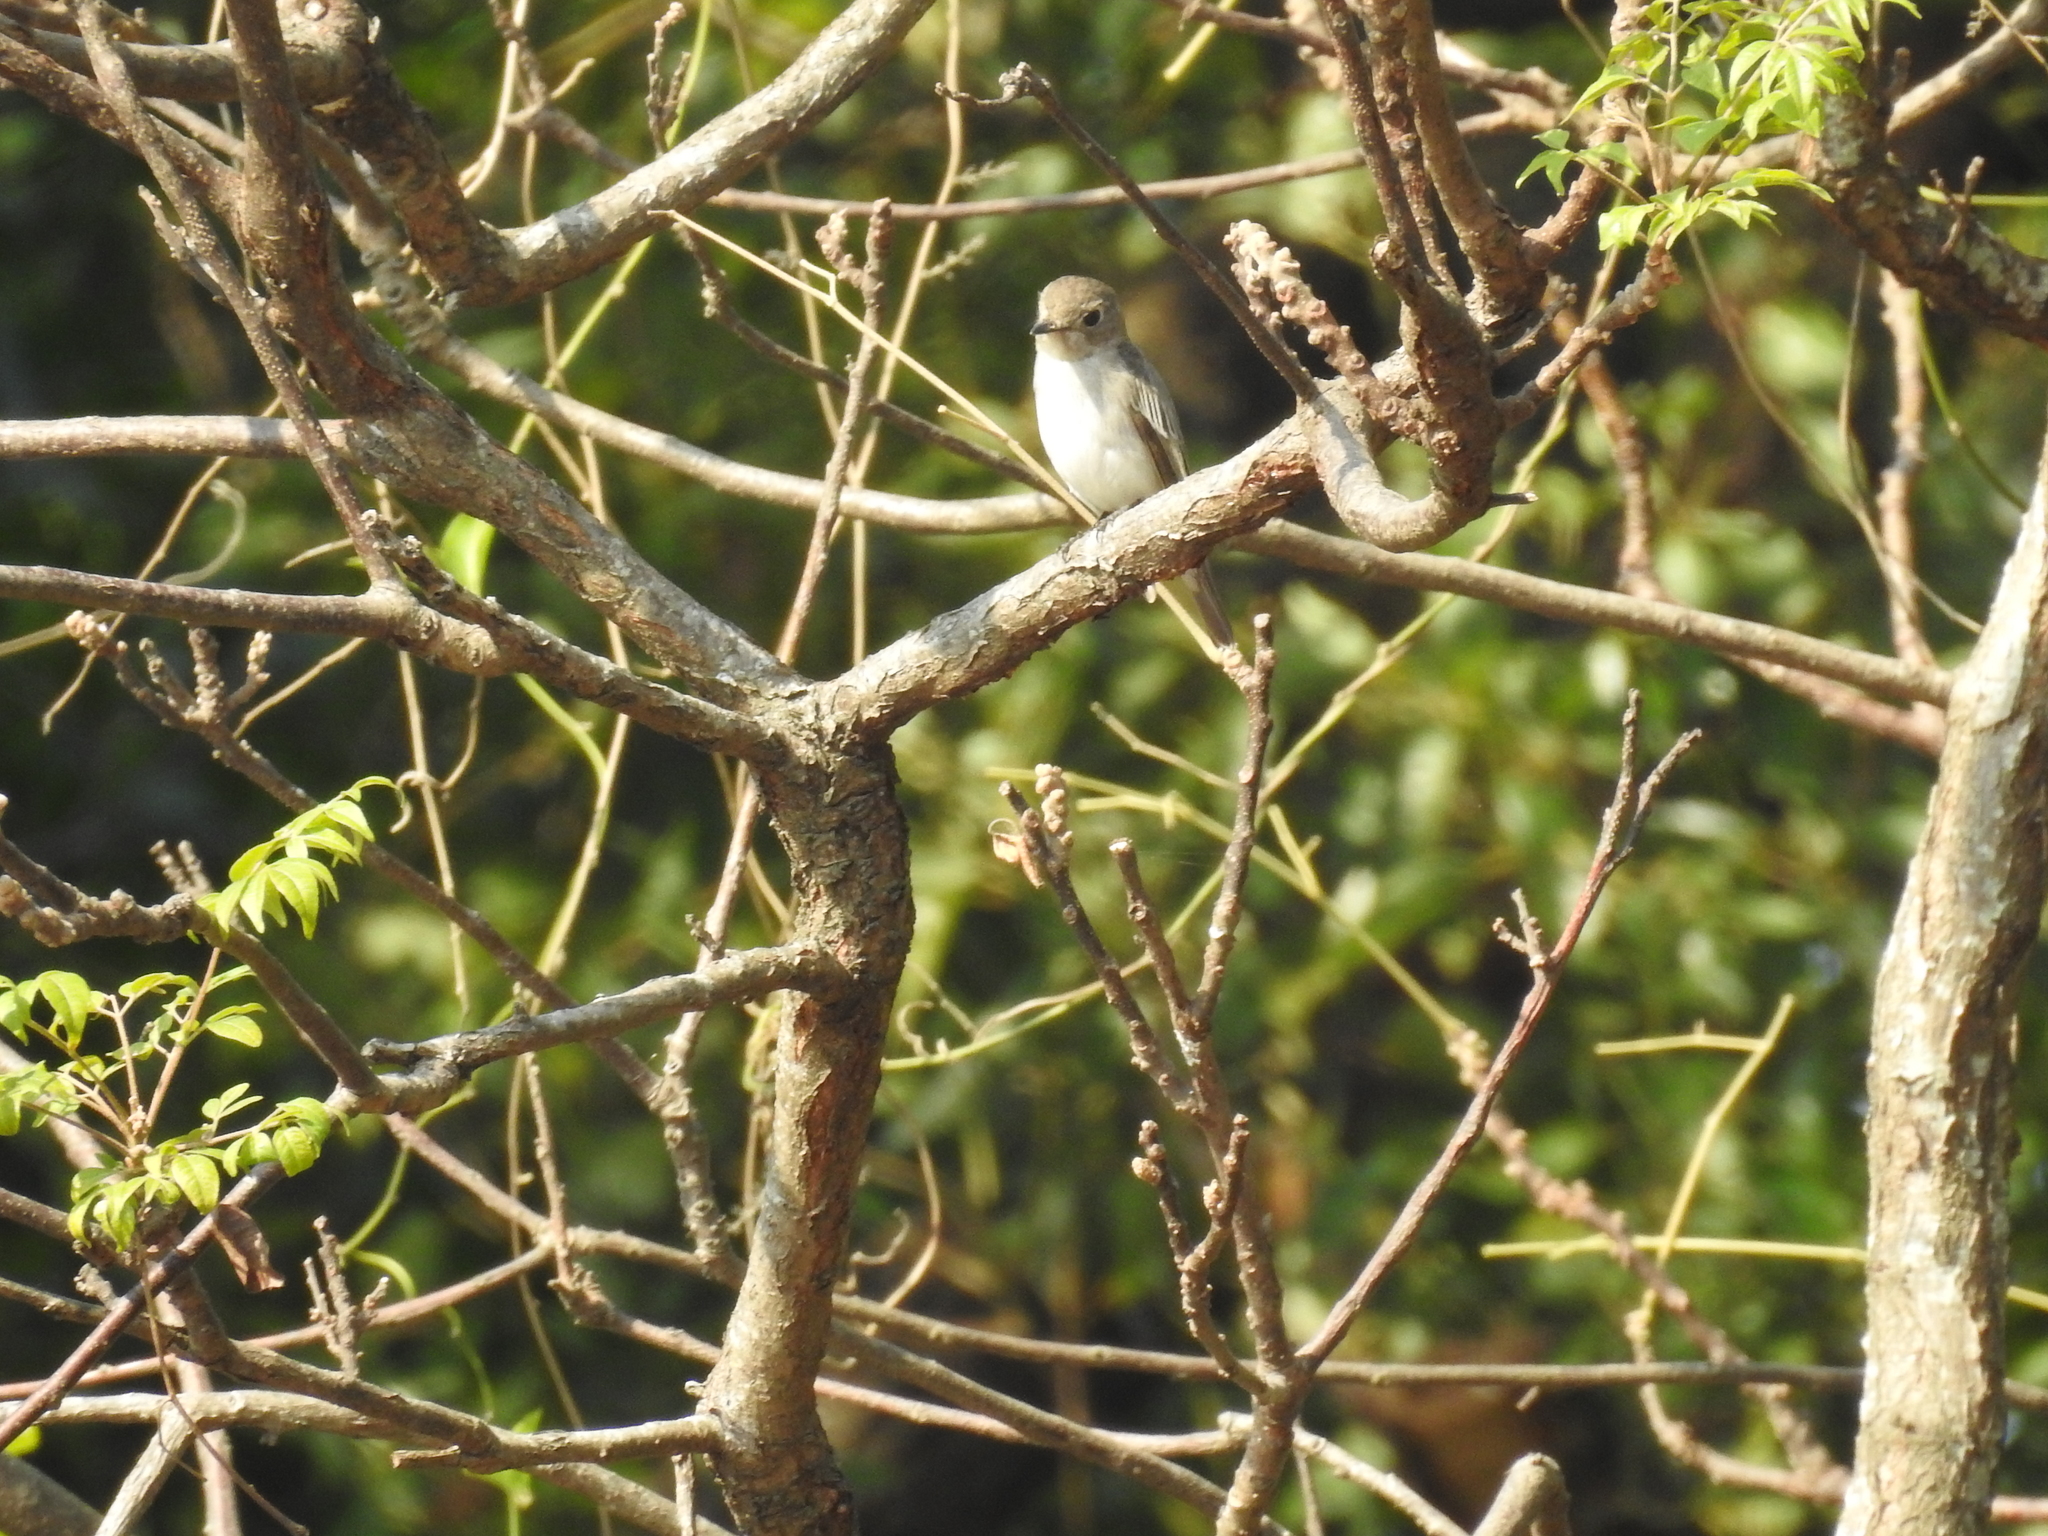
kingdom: Animalia
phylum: Chordata
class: Aves
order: Passeriformes
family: Muscicapidae
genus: Muscicapa
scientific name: Muscicapa latirostris
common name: Asian brown flycatcher
